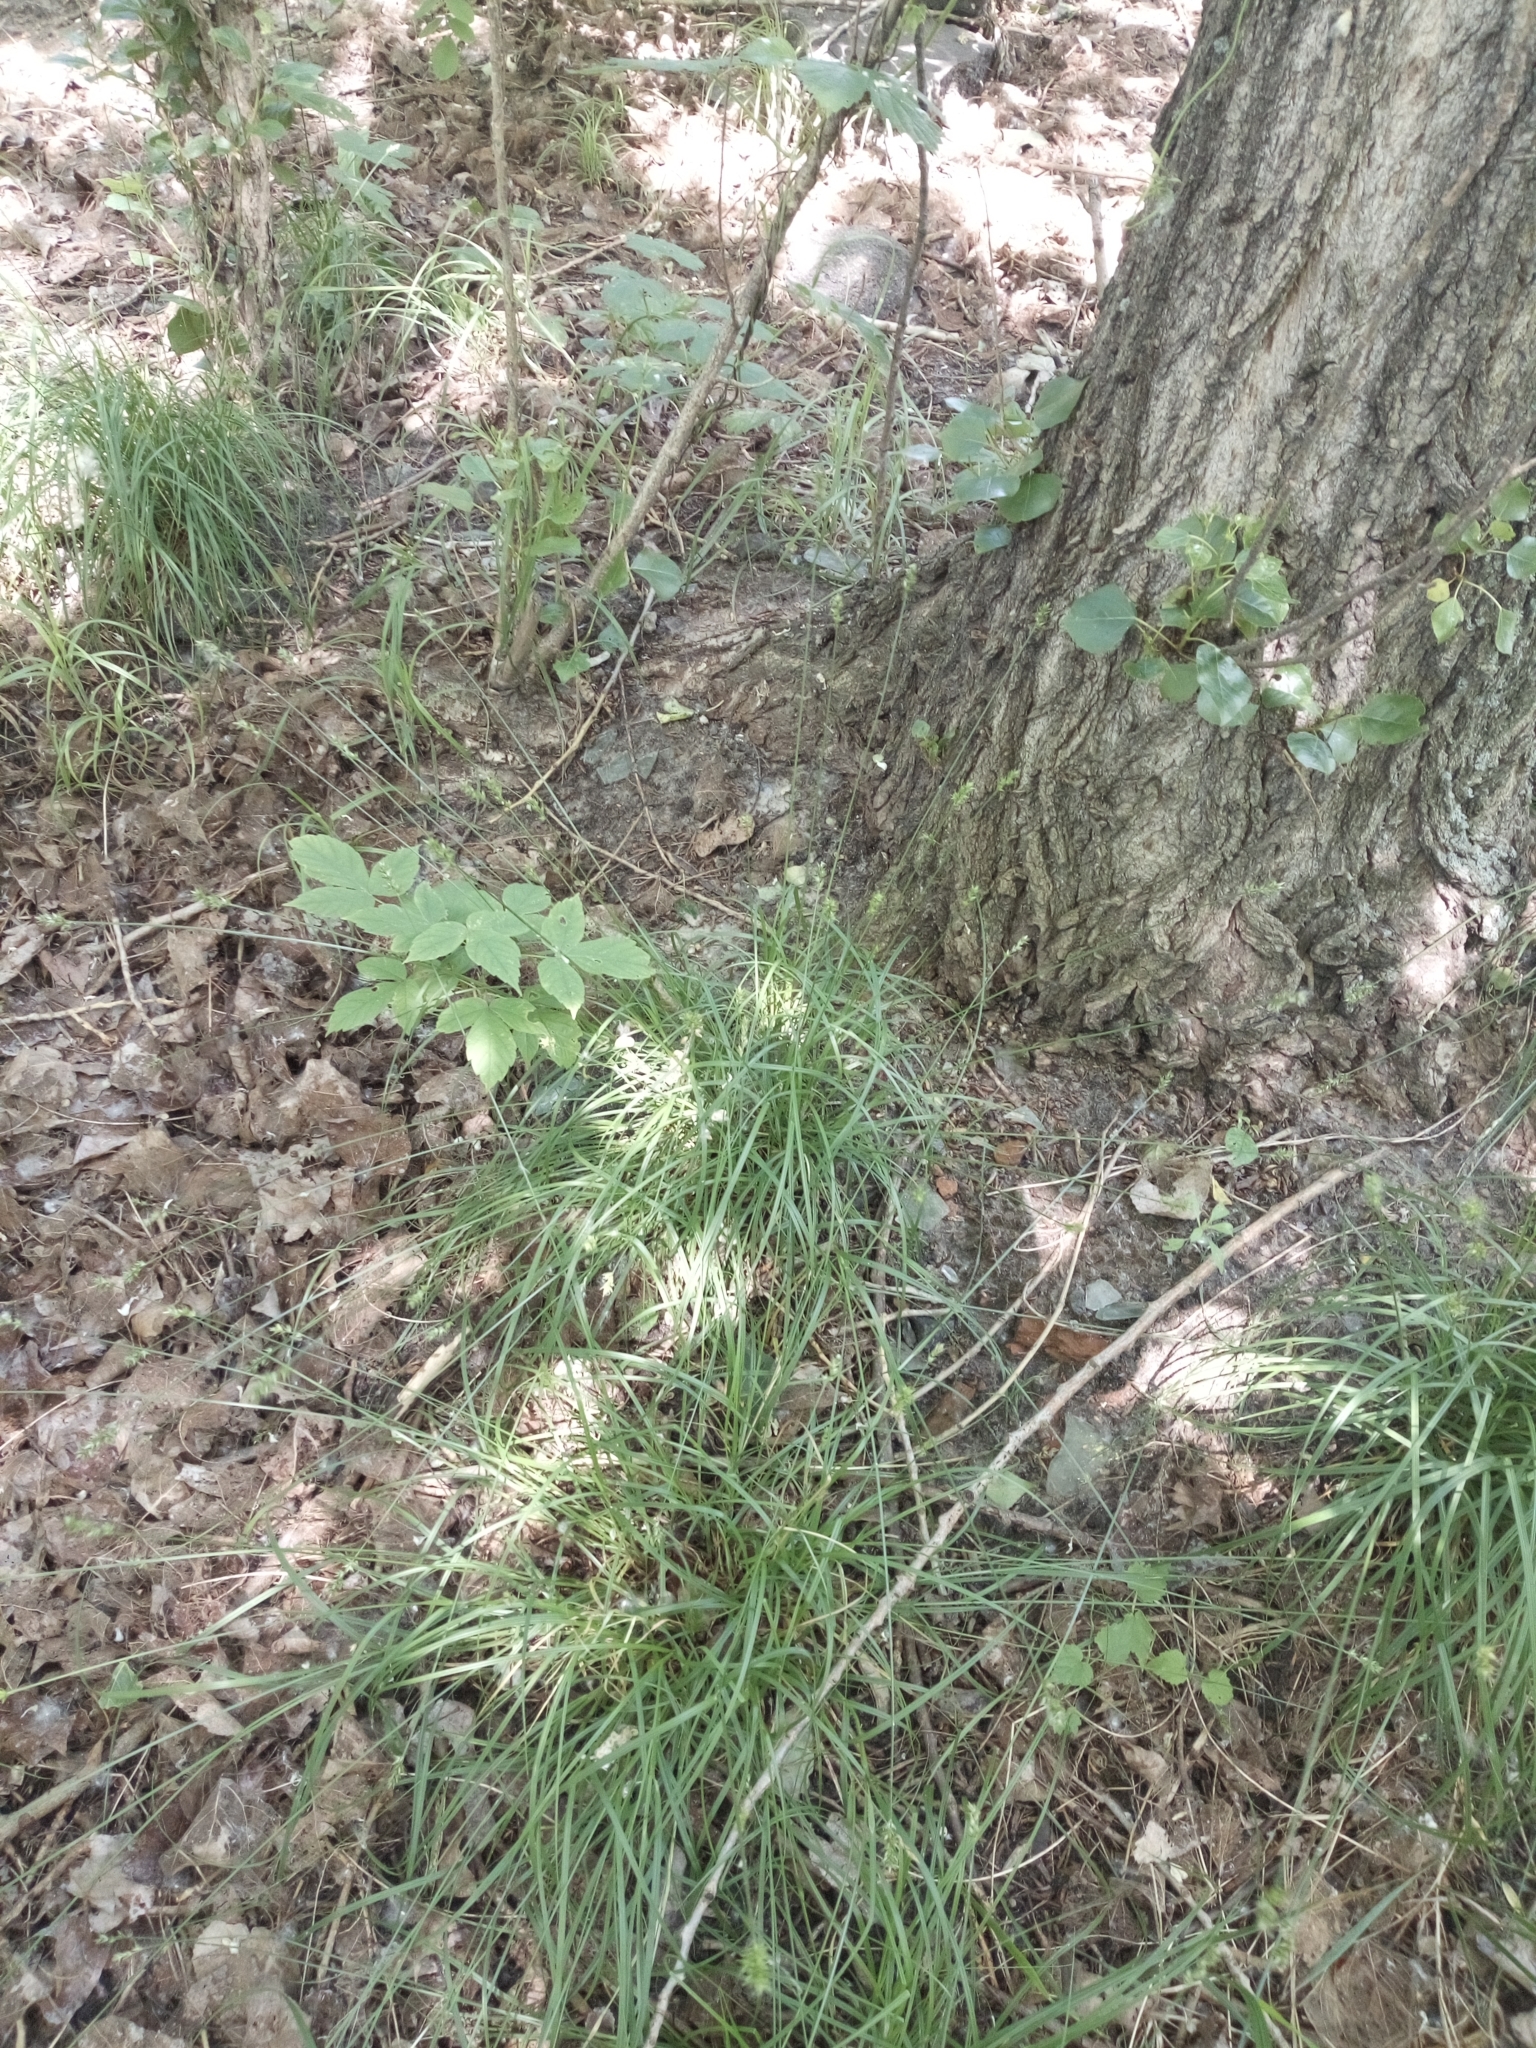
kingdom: Plantae
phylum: Tracheophyta
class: Liliopsida
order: Poales
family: Cyperaceae
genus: Carex
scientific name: Carex spicata
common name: Spiked sedge
